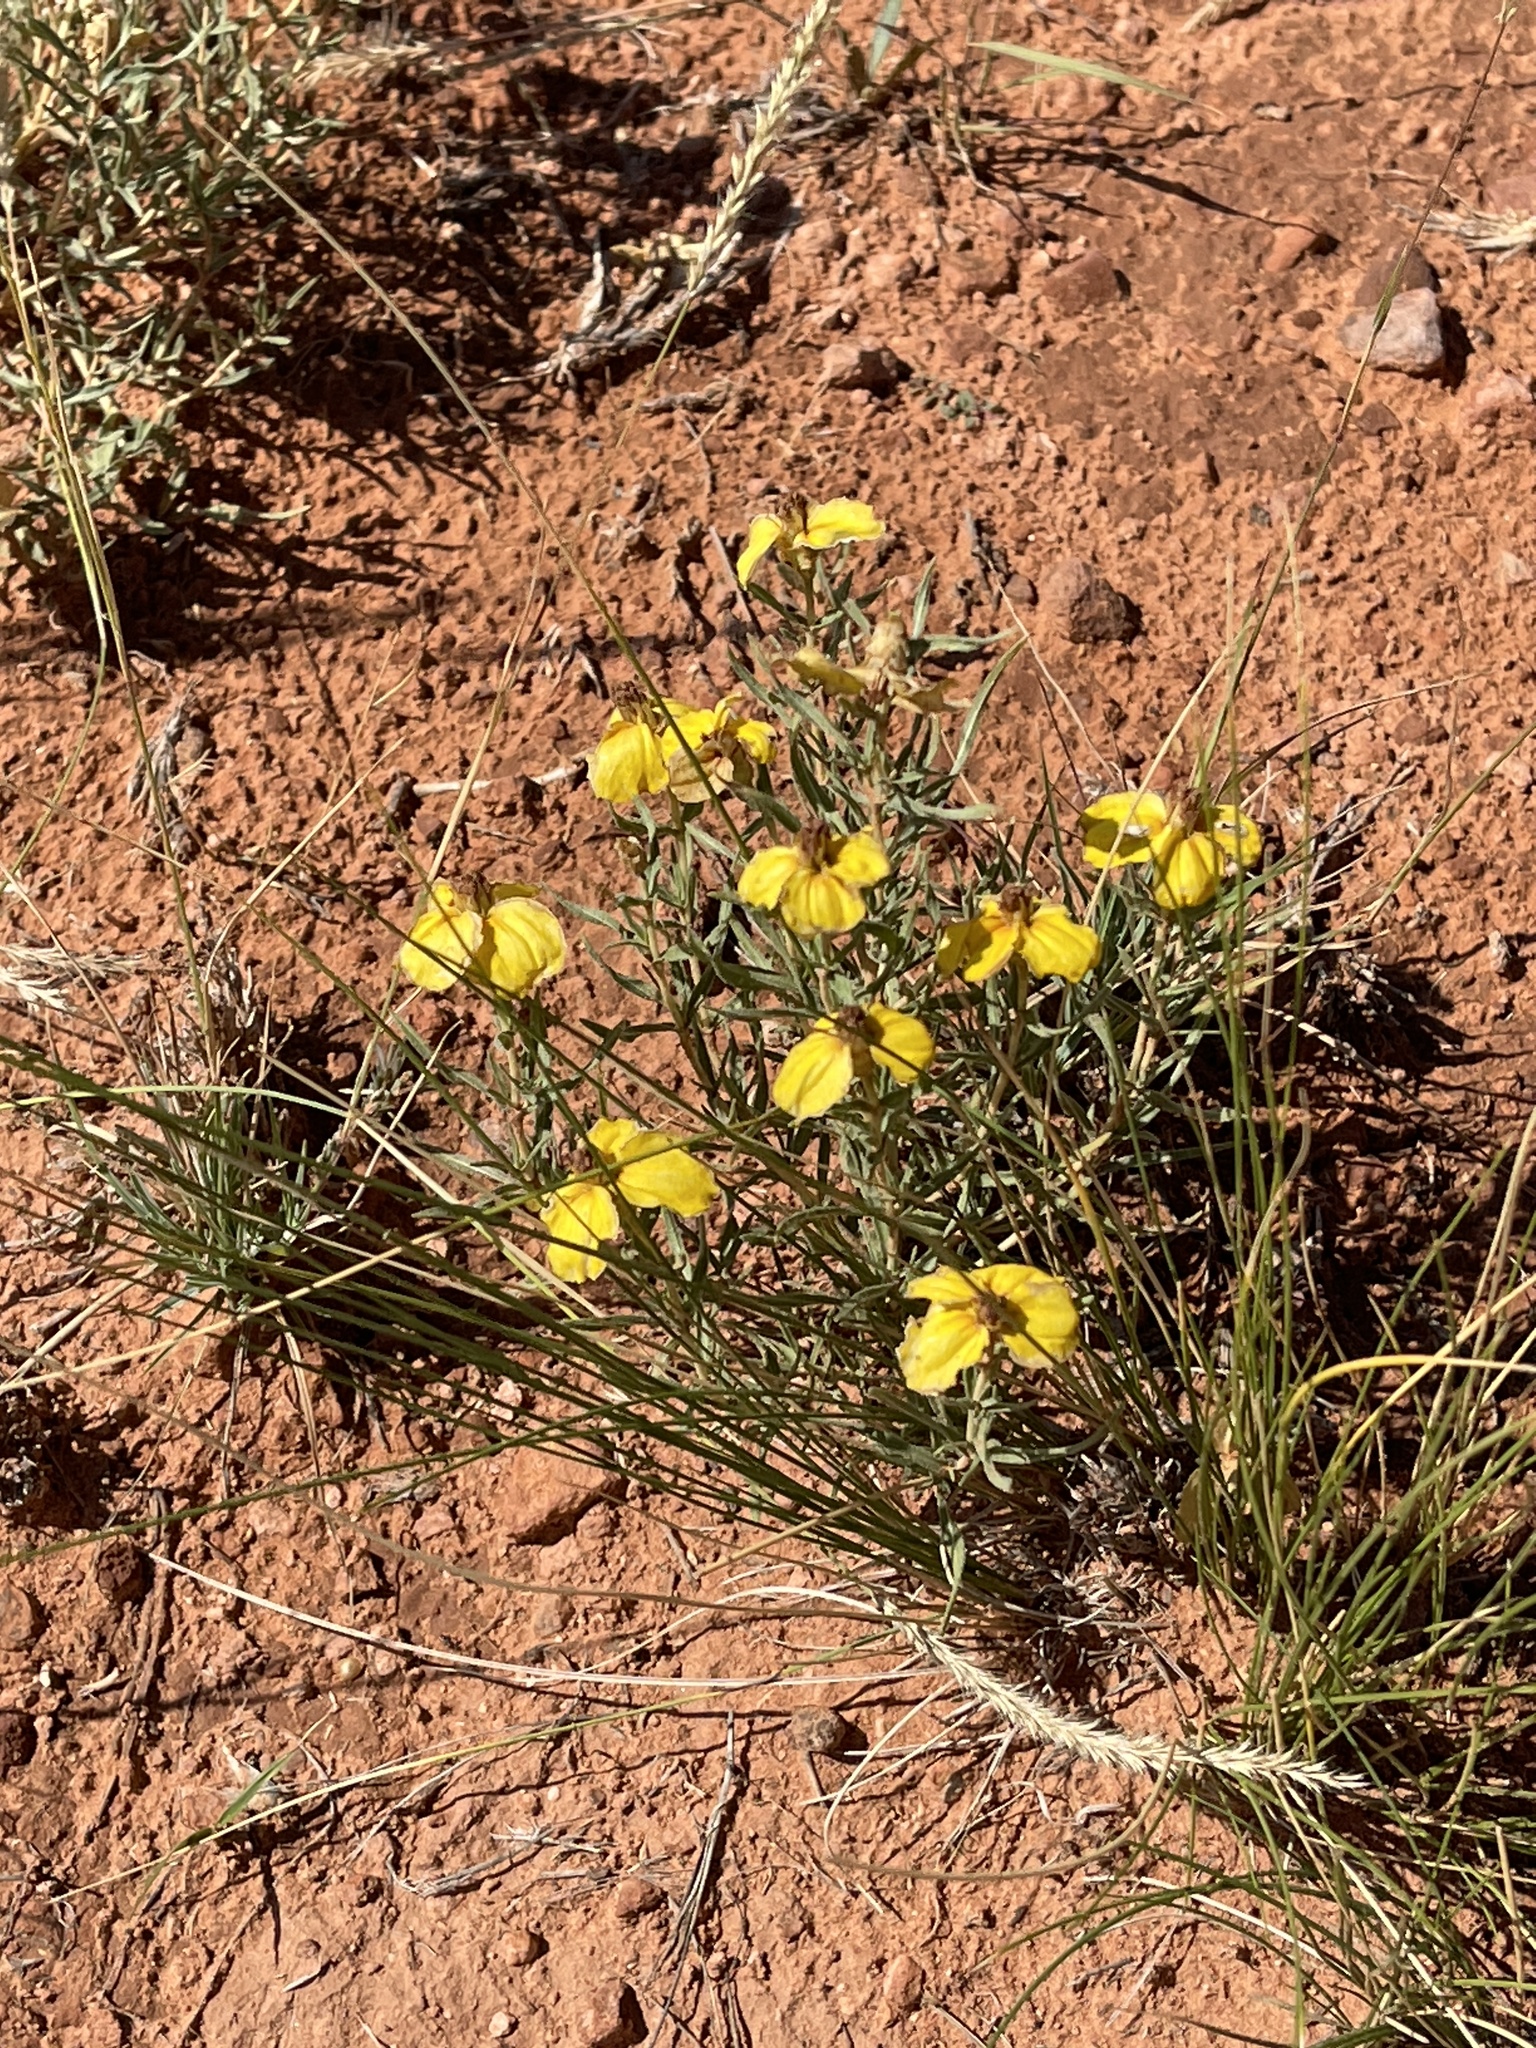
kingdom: Plantae
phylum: Tracheophyta
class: Magnoliopsida
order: Asterales
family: Asteraceae
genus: Zinnia
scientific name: Zinnia grandiflora
